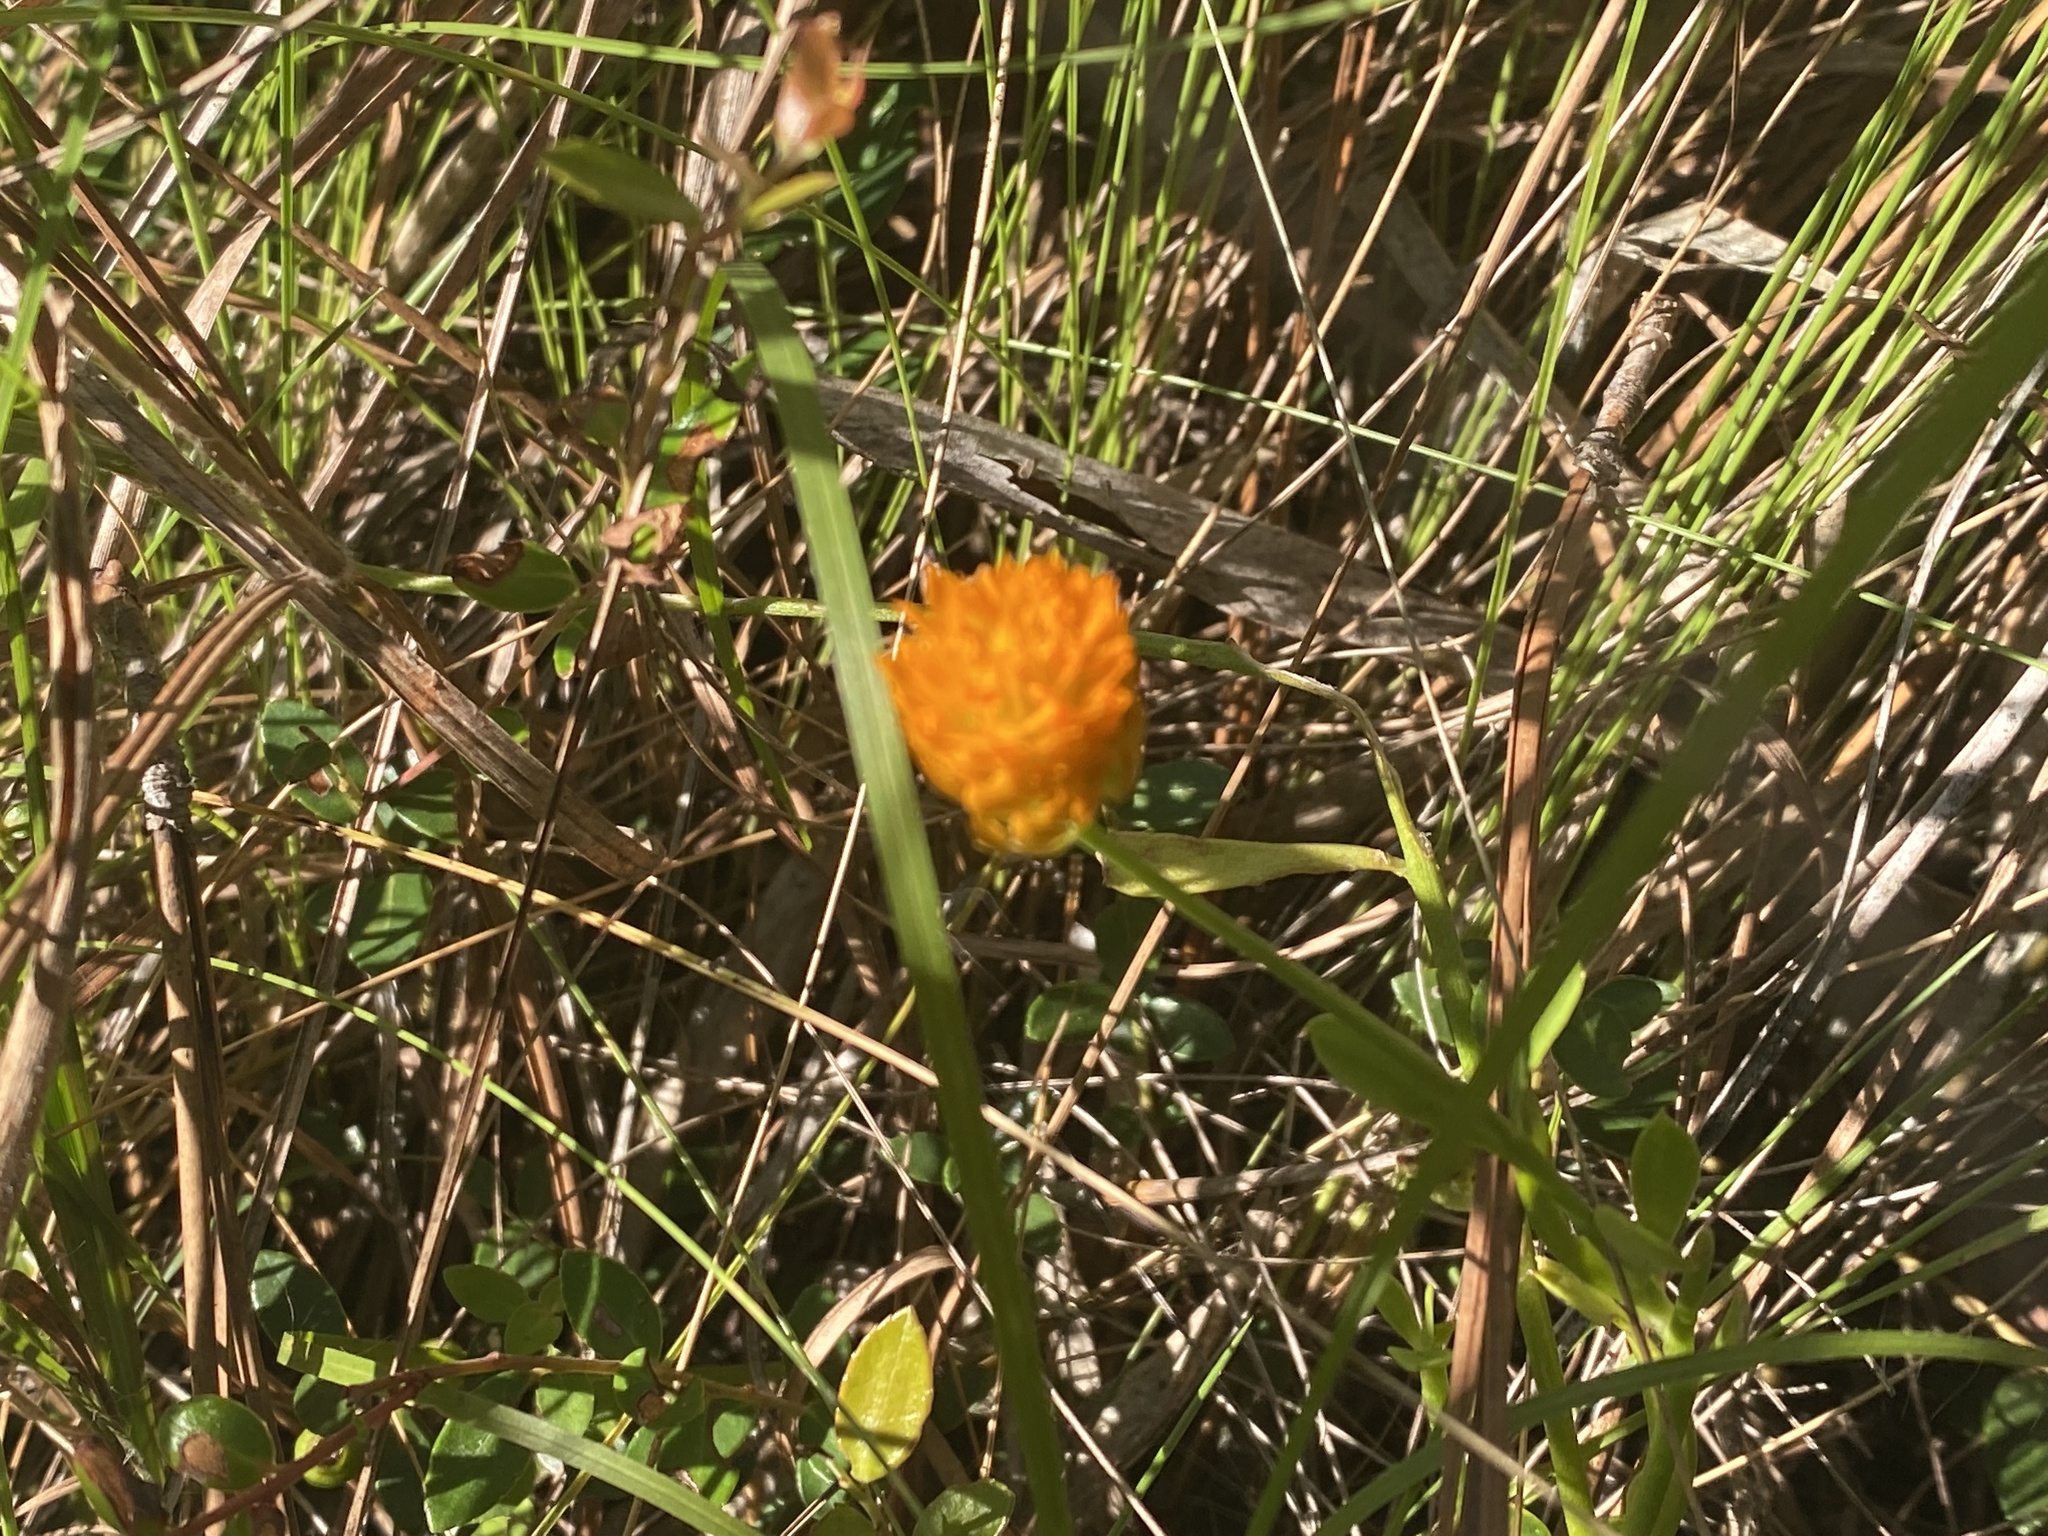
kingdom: Plantae
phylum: Tracheophyta
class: Magnoliopsida
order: Fabales
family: Polygalaceae
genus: Polygala
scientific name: Polygala lutea
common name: Orange milkwort
